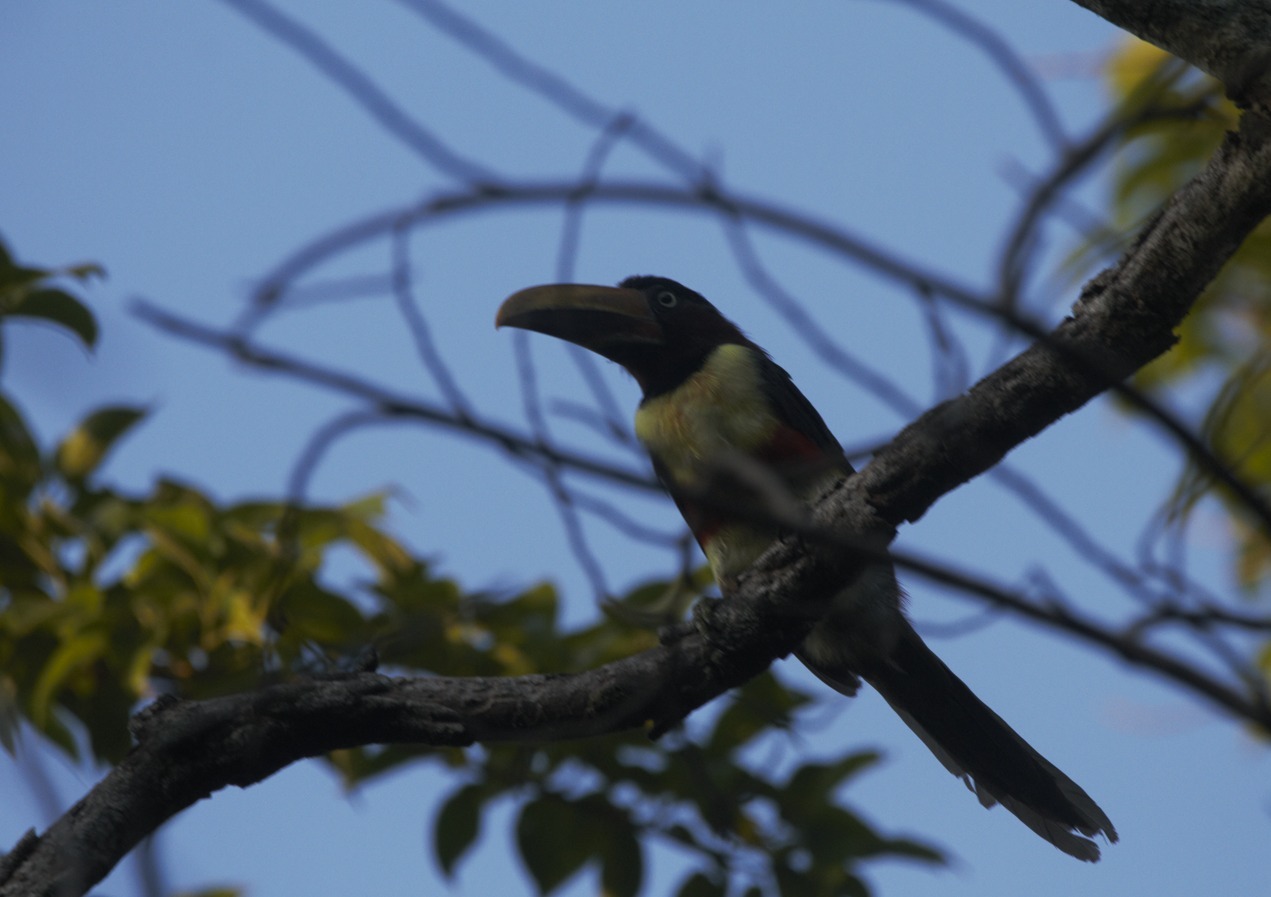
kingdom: Animalia
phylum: Chordata
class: Aves
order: Piciformes
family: Ramphastidae
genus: Pteroglossus
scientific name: Pteroglossus castanotis
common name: Chestnut-eared aracari
